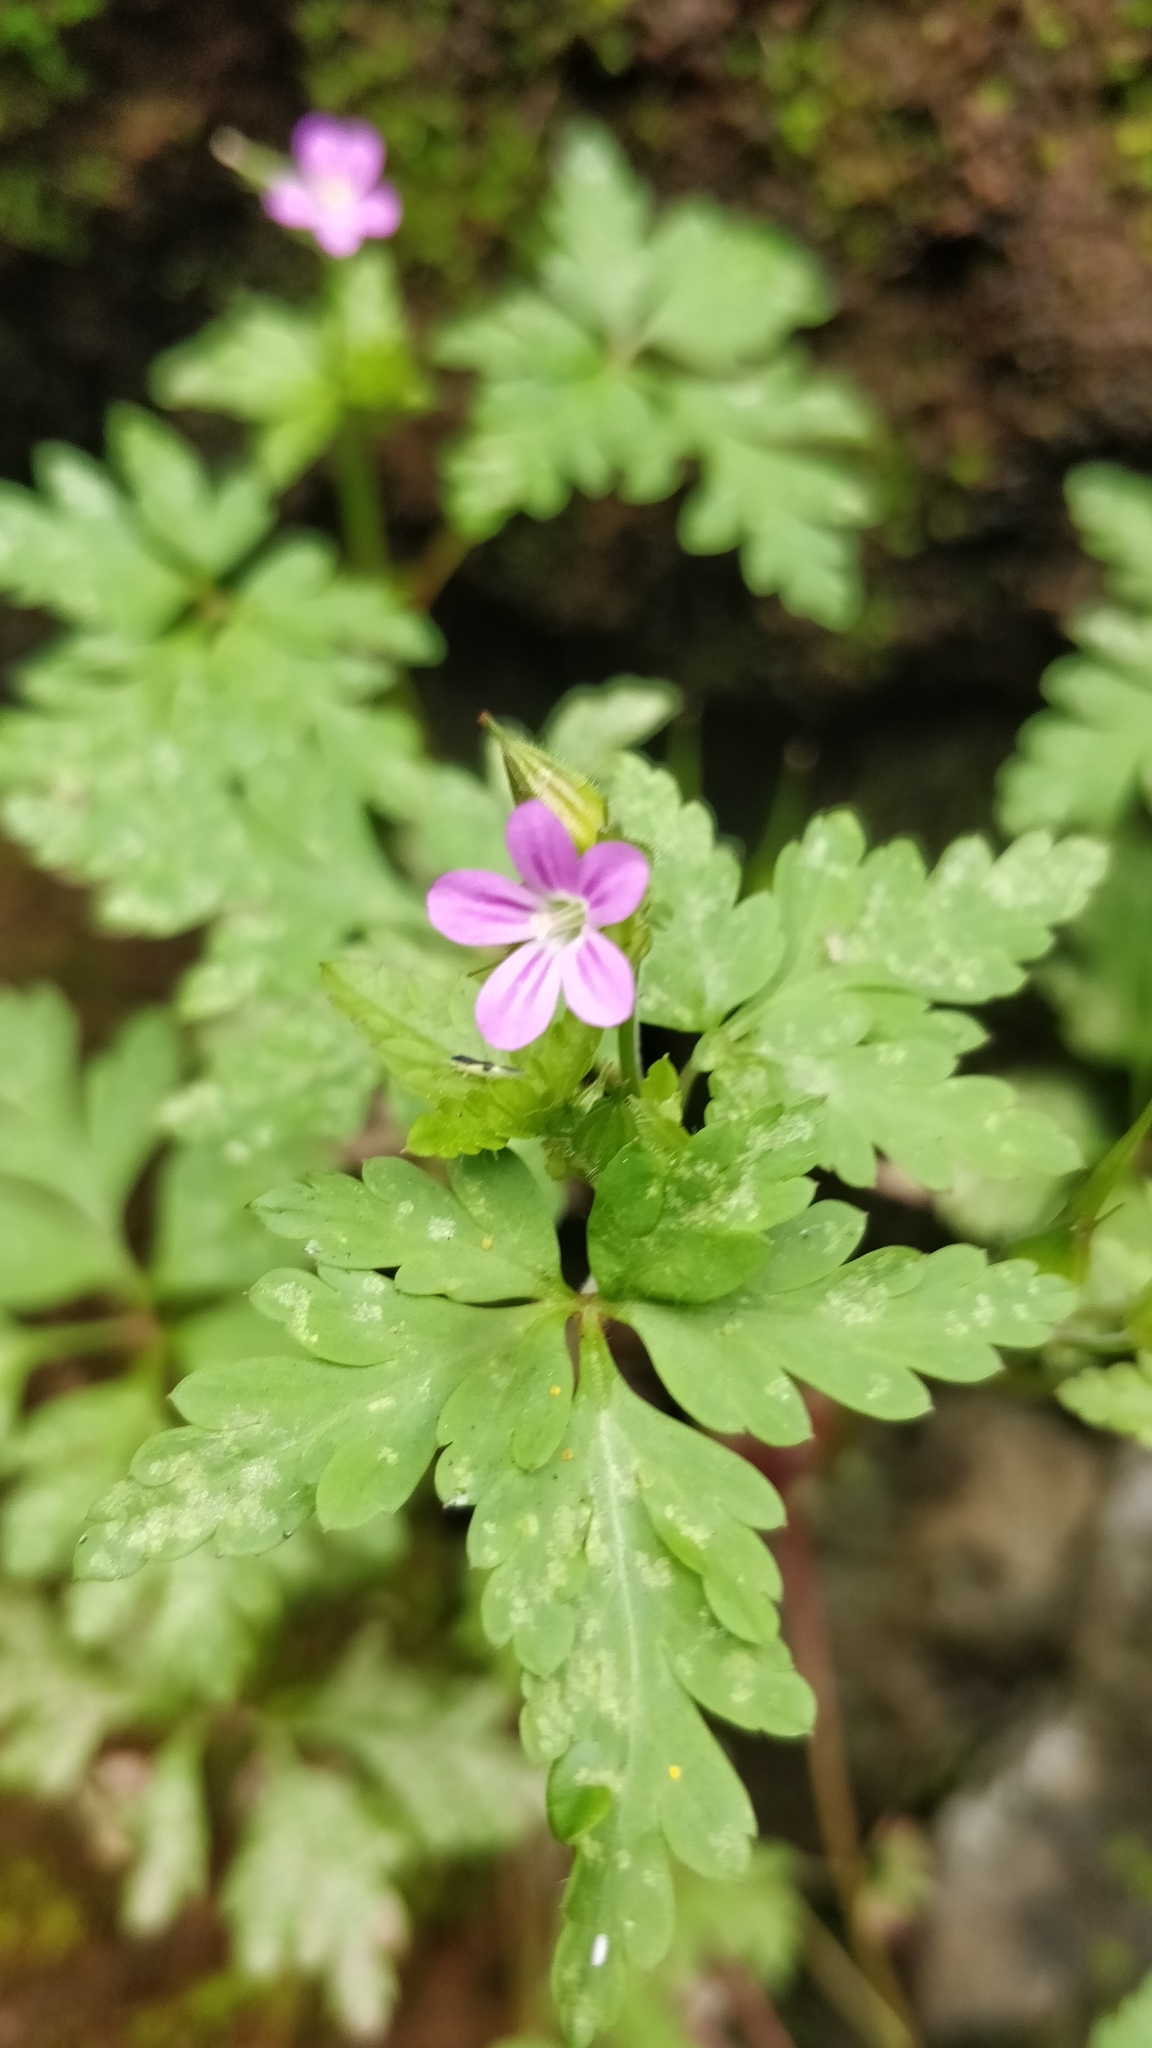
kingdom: Plantae
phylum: Tracheophyta
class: Magnoliopsida
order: Geraniales
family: Geraniaceae
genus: Geranium
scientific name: Geranium yeoi
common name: Greater herb robert
